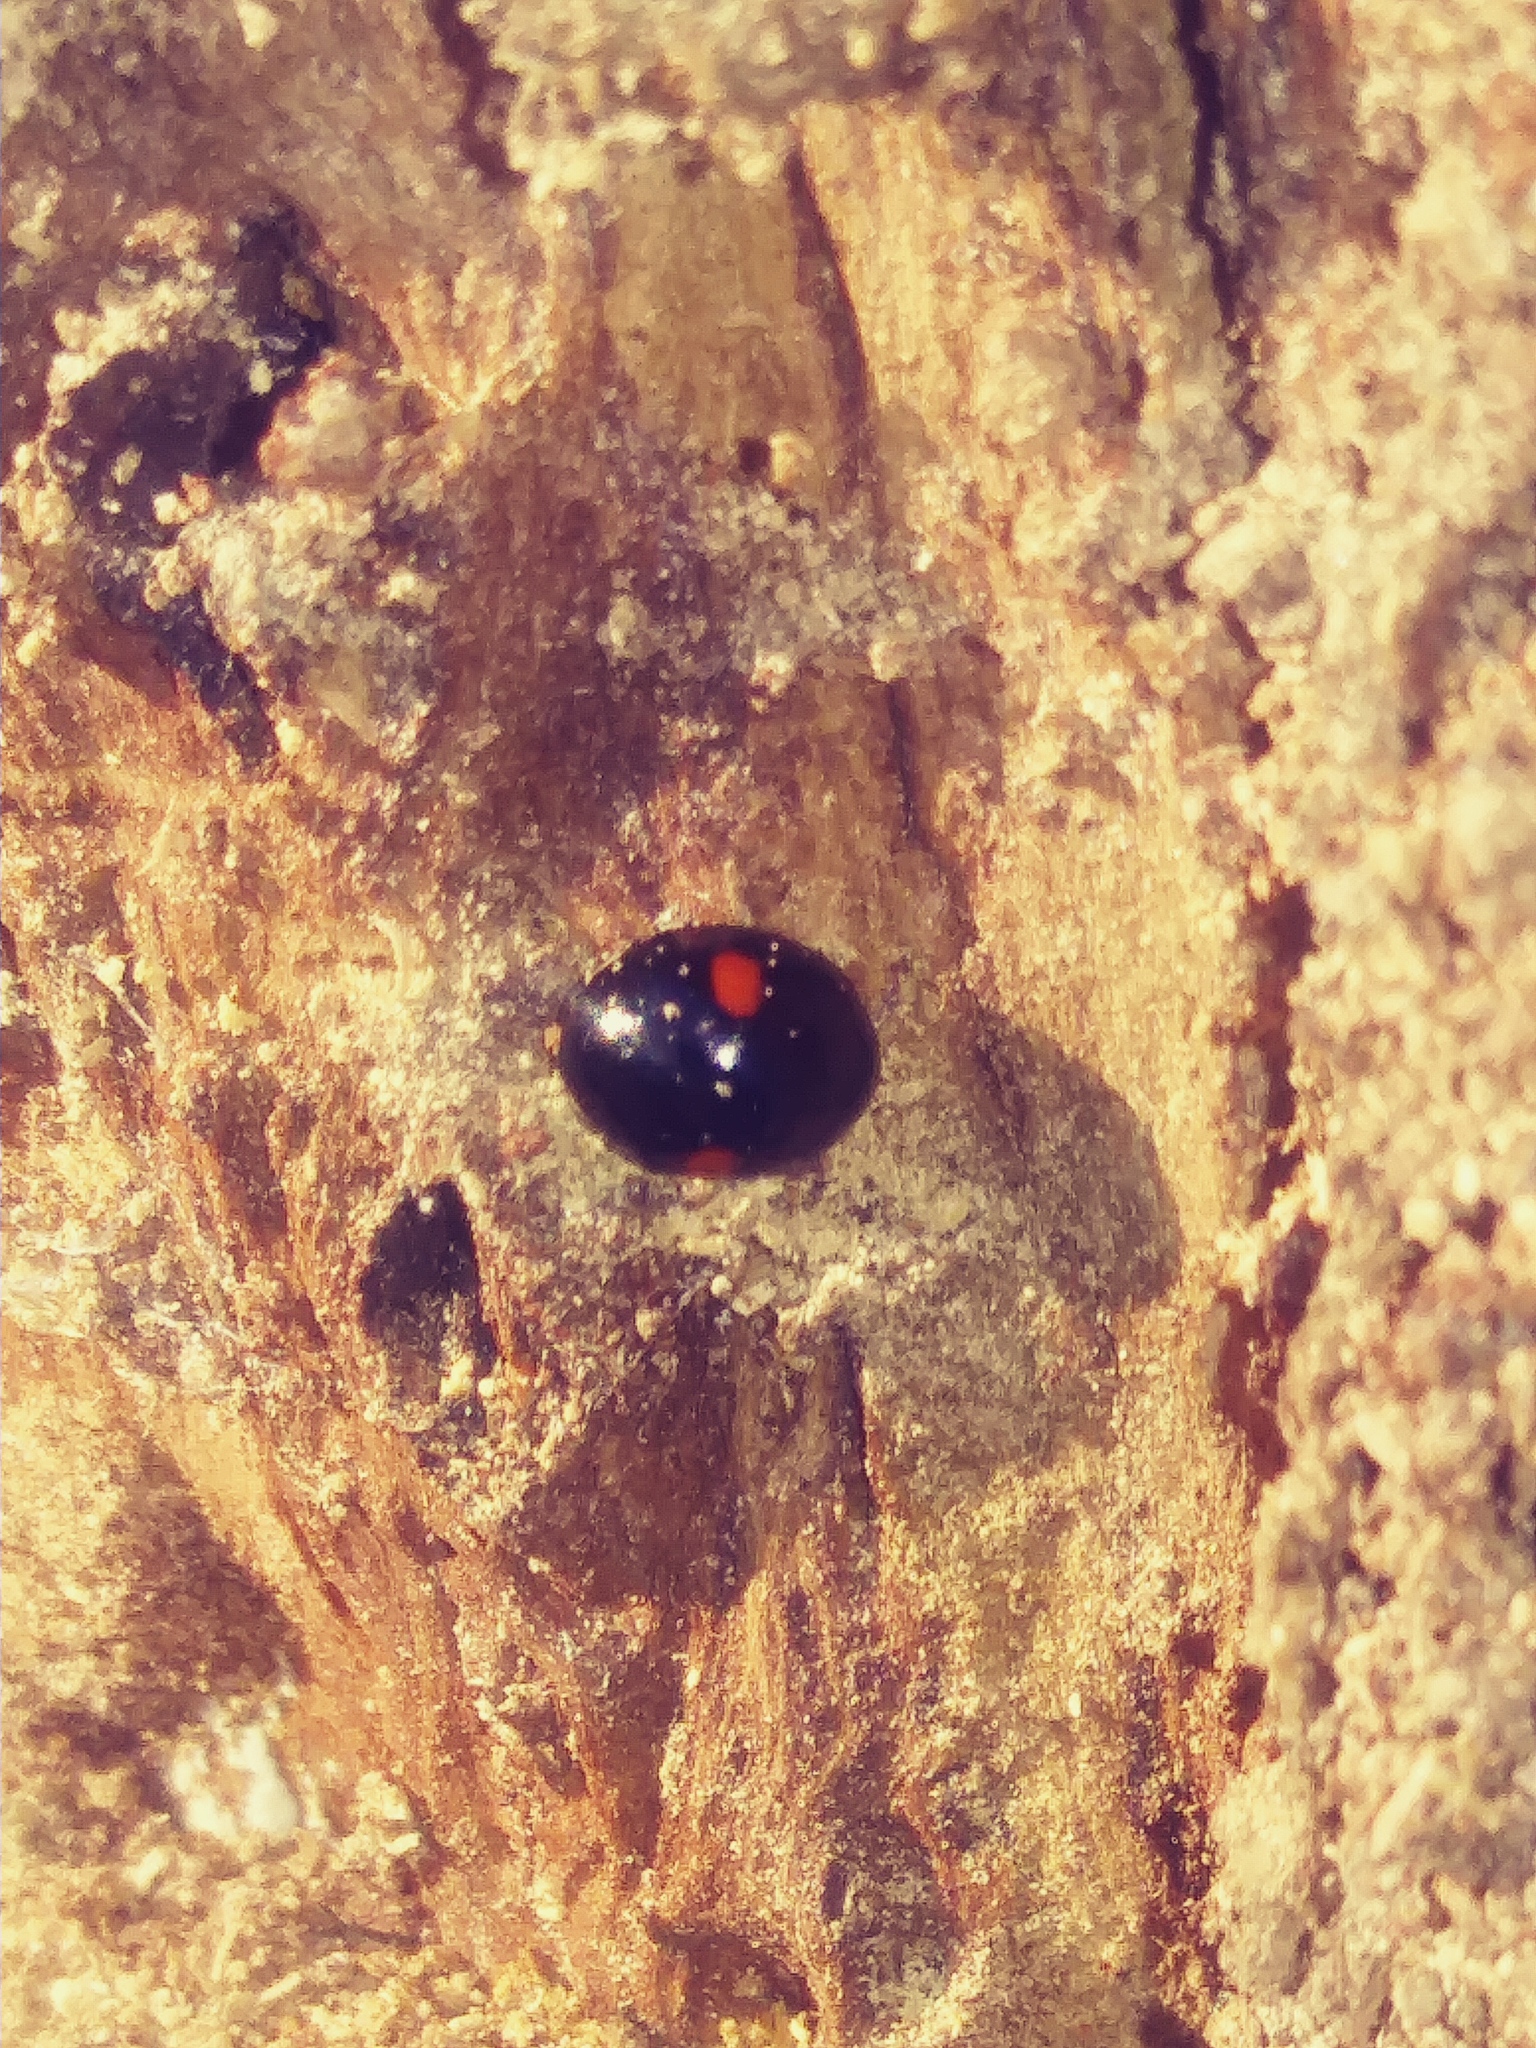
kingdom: Animalia
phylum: Arthropoda
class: Insecta
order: Coleoptera
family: Coccinellidae
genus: Hyperaspis
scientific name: Hyperaspis
